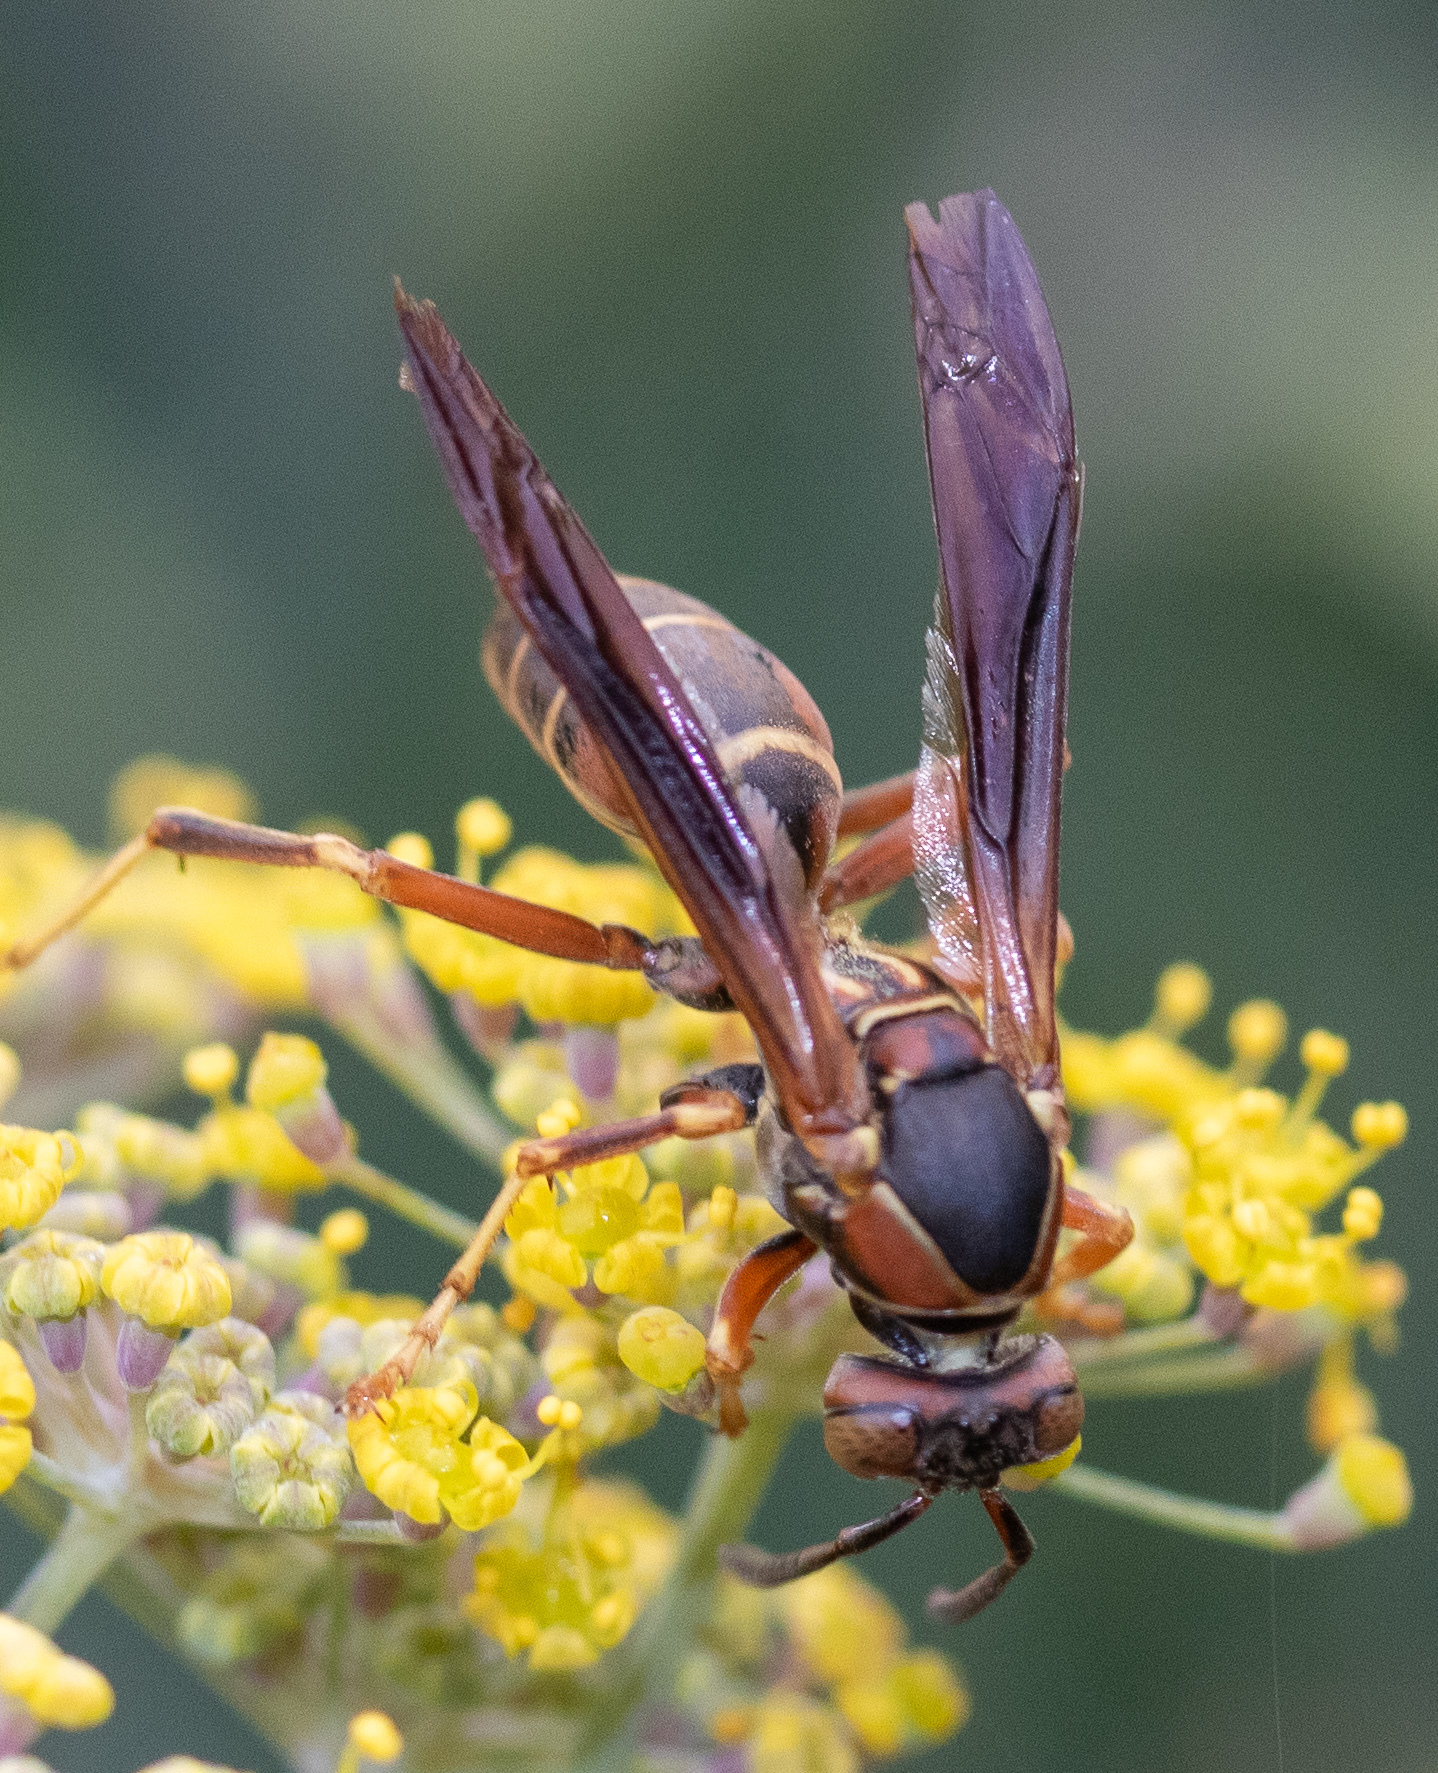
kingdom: Animalia
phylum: Arthropoda
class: Insecta
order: Hymenoptera
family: Eumenidae
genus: Polistes
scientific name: Polistes fuscatus
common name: Dark paper wasp
